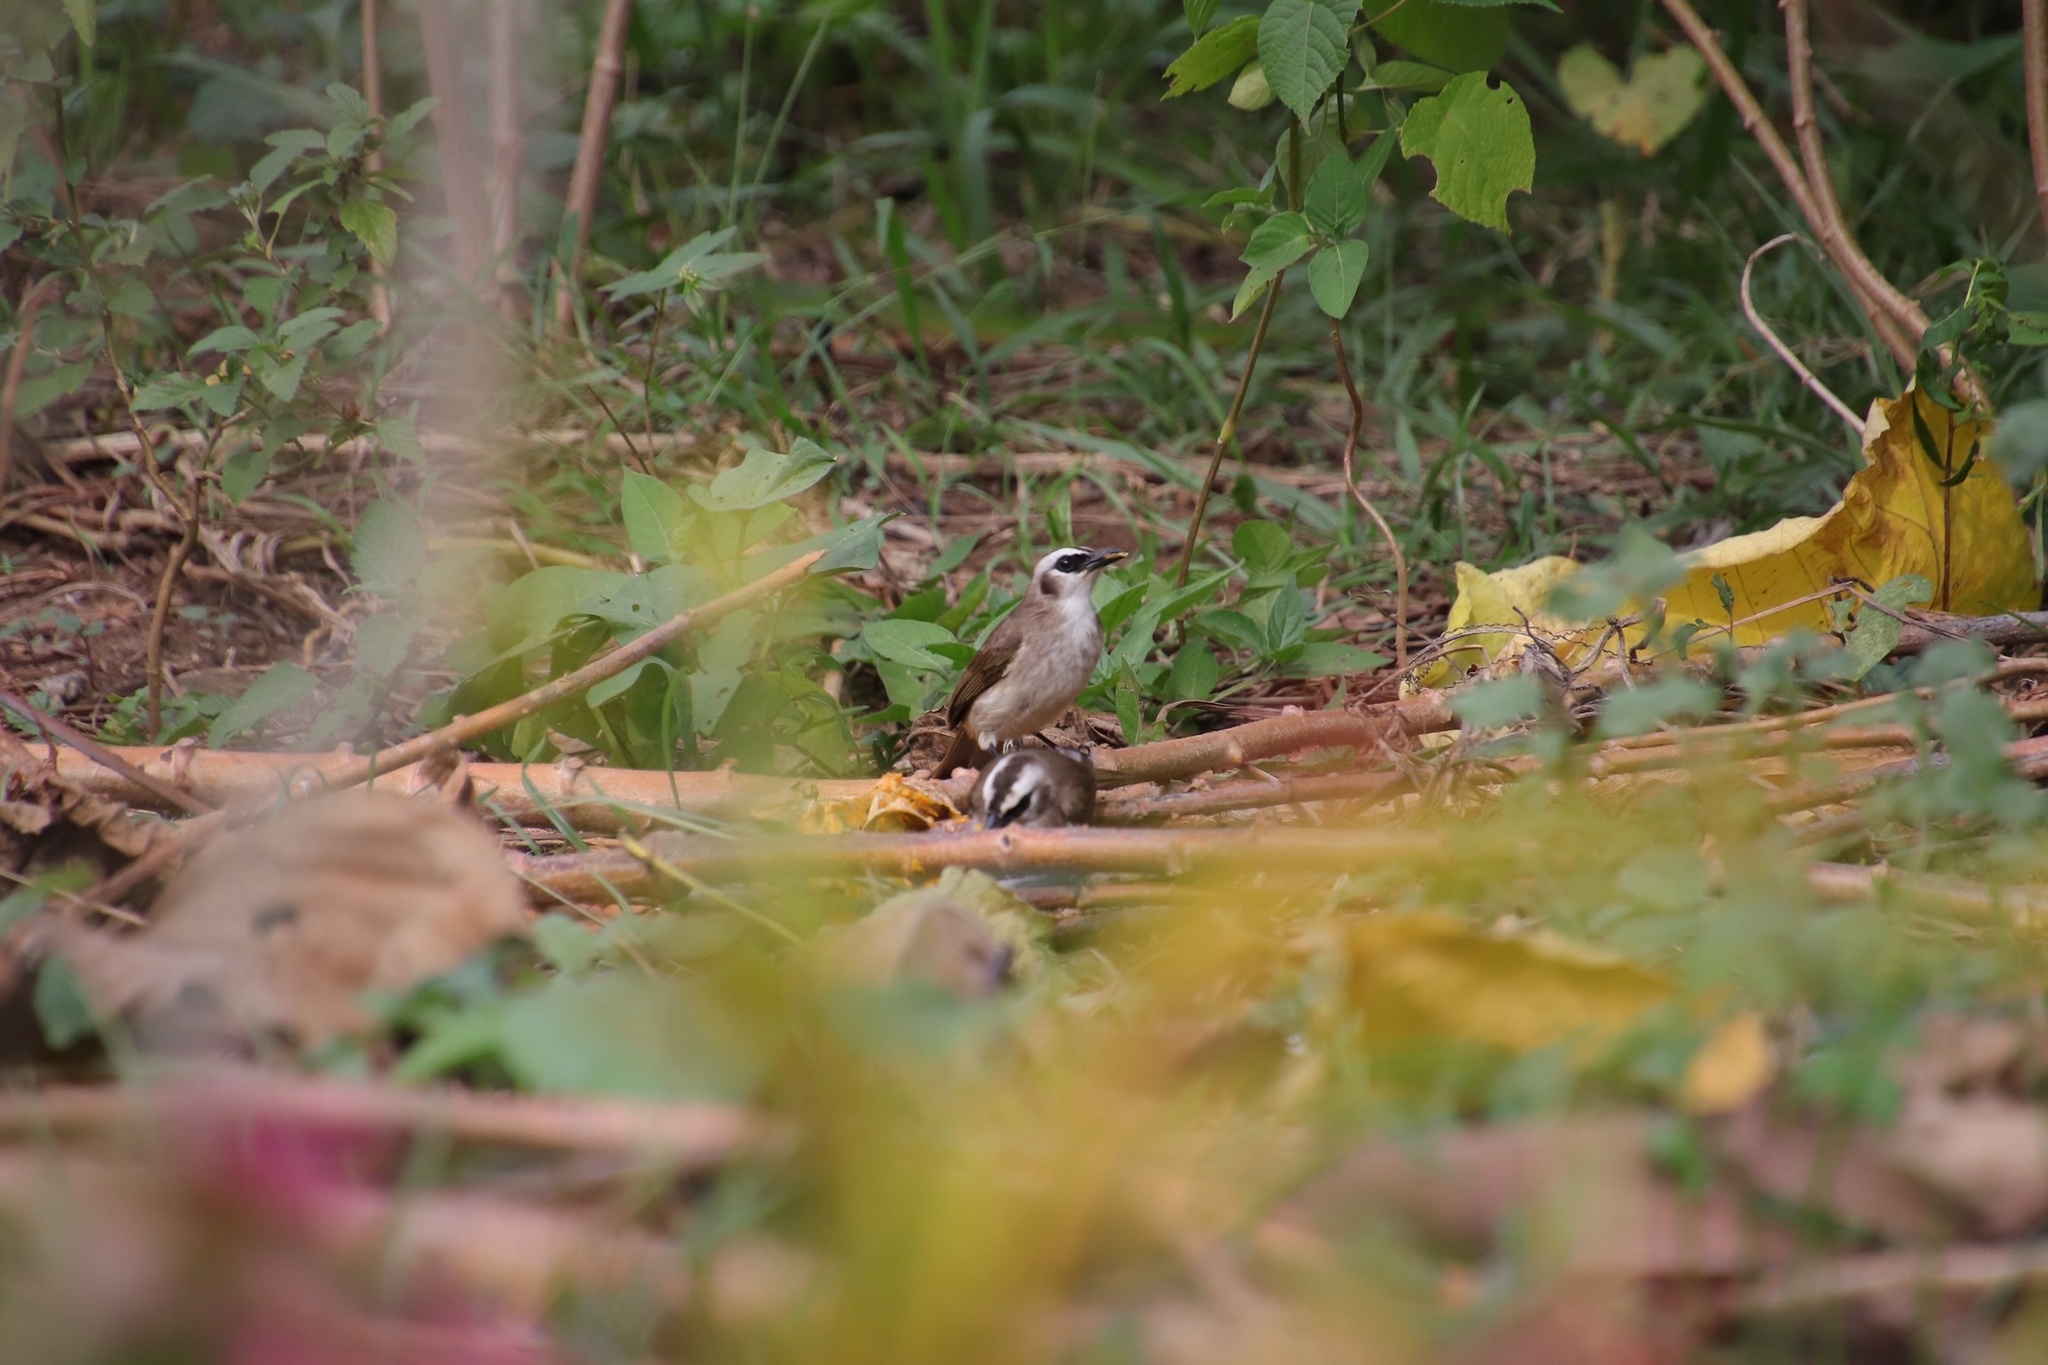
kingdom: Animalia
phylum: Chordata
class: Aves
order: Passeriformes
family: Pycnonotidae
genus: Pycnonotus
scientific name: Pycnonotus goiavier
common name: Yellow-vented bulbul
